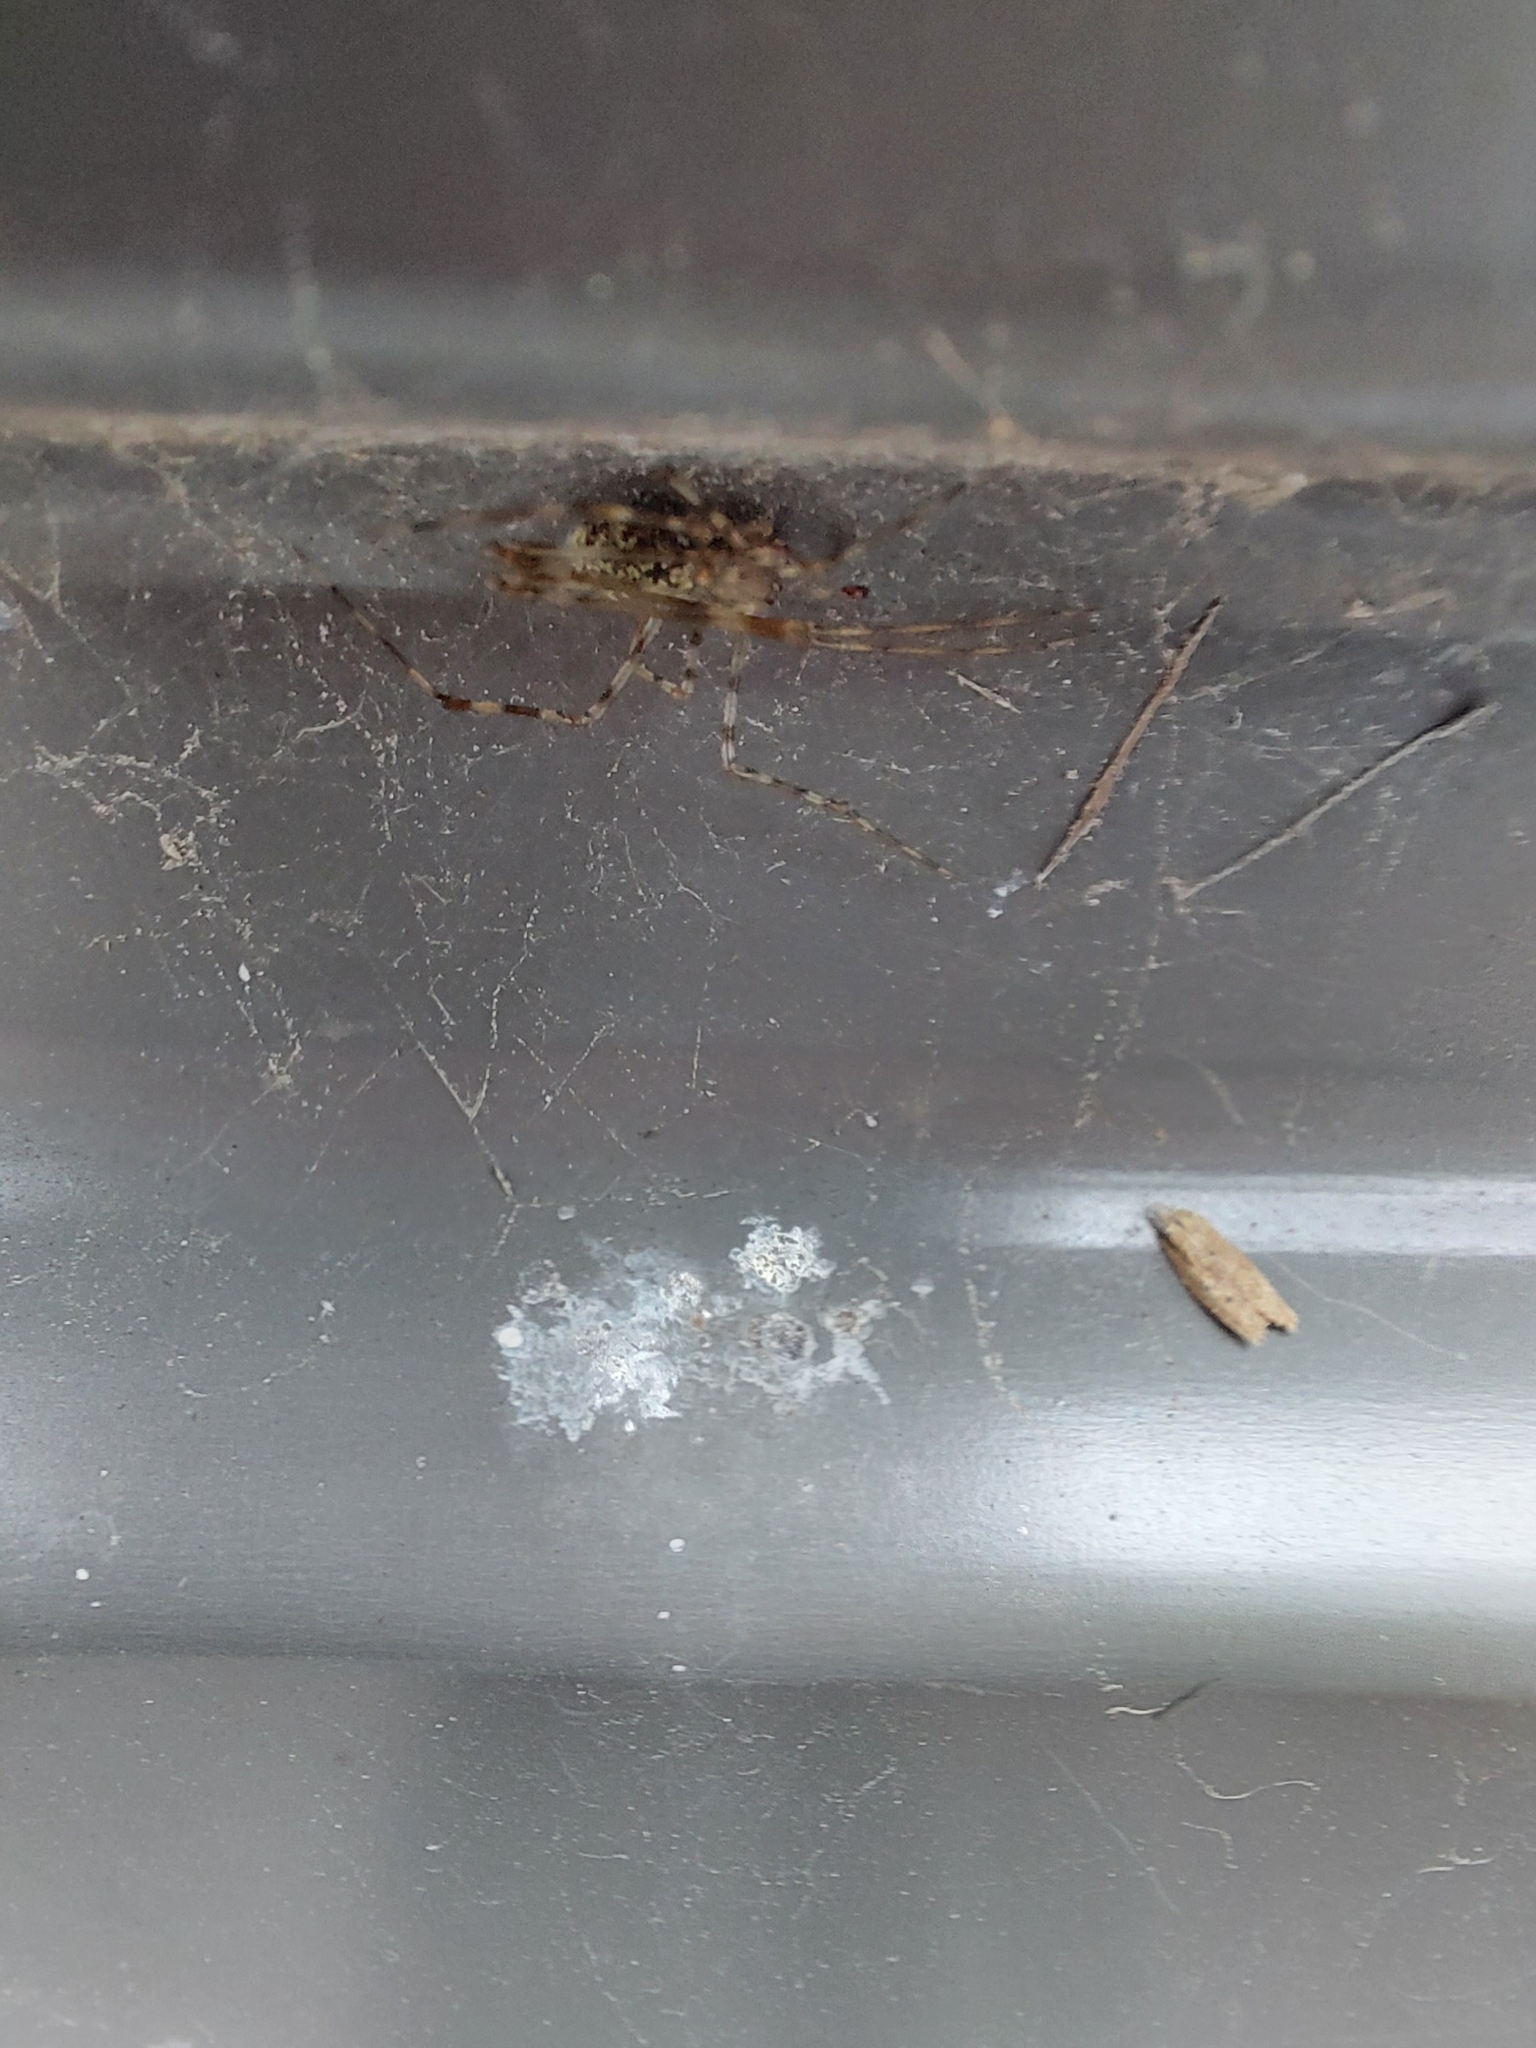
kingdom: Animalia
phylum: Arthropoda
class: Arachnida
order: Araneae
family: Theridiidae
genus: Cryptachaea
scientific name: Cryptachaea gigantipes
